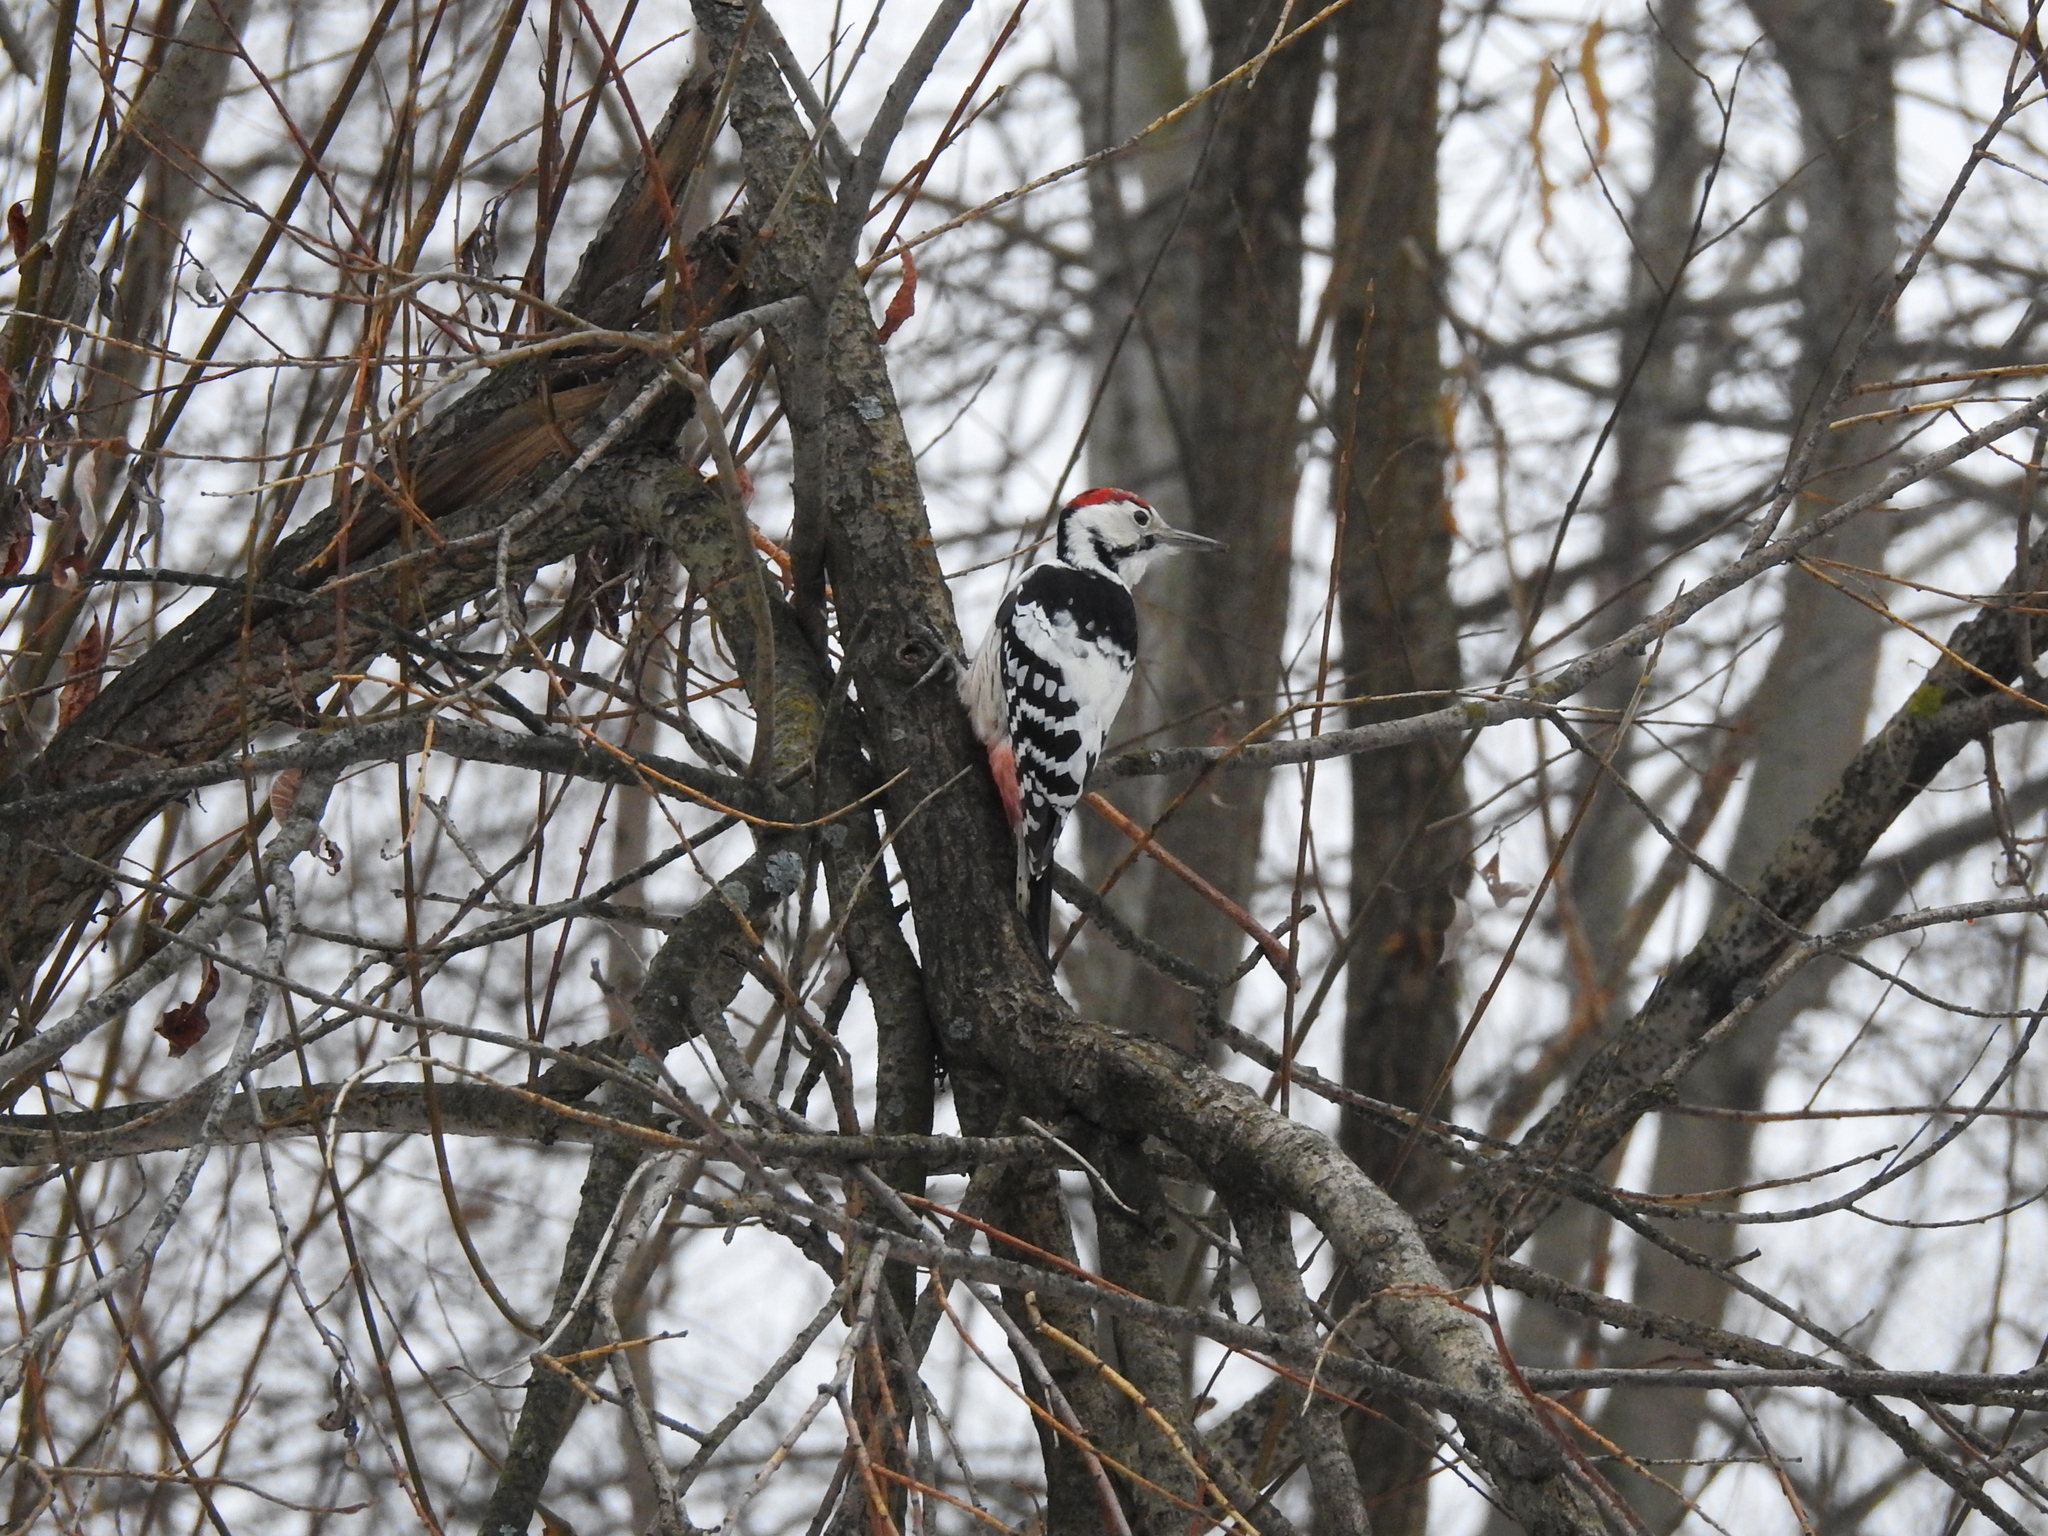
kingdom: Animalia
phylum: Chordata
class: Aves
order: Piciformes
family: Picidae
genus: Dendrocopos
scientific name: Dendrocopos leucotos
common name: White-backed woodpecker
